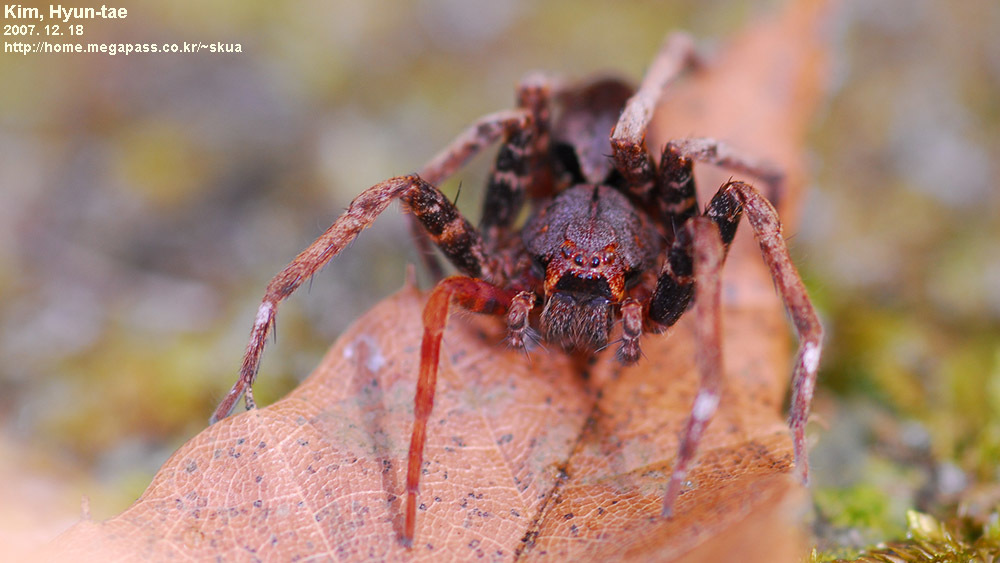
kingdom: Animalia
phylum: Arthropoda
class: Arachnida
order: Araneae
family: Pisauridae
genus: Dolomedes
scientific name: Dolomedes nigrimaculatus
